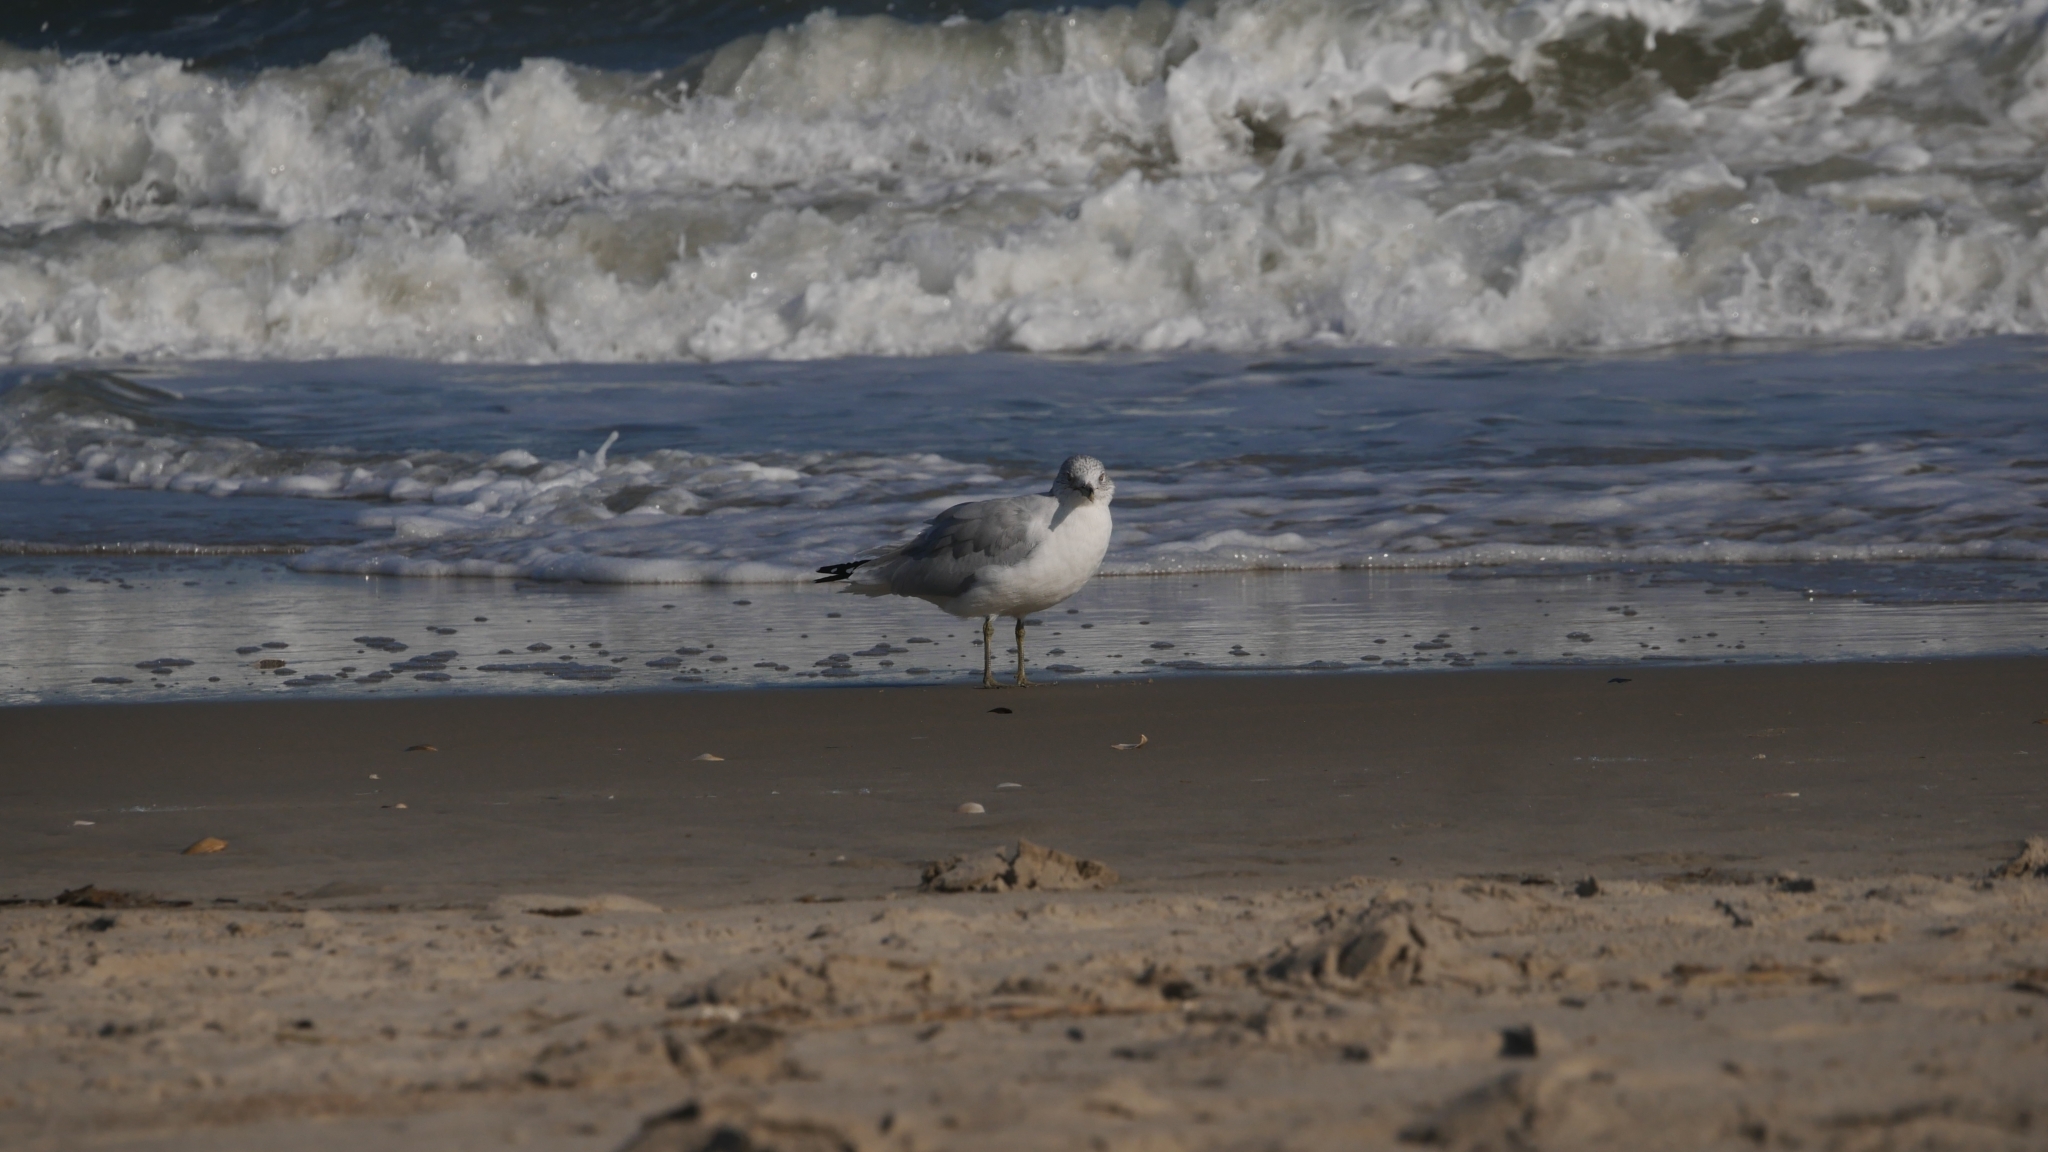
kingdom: Animalia
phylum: Chordata
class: Aves
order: Charadriiformes
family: Laridae
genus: Larus
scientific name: Larus delawarensis
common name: Ring-billed gull
